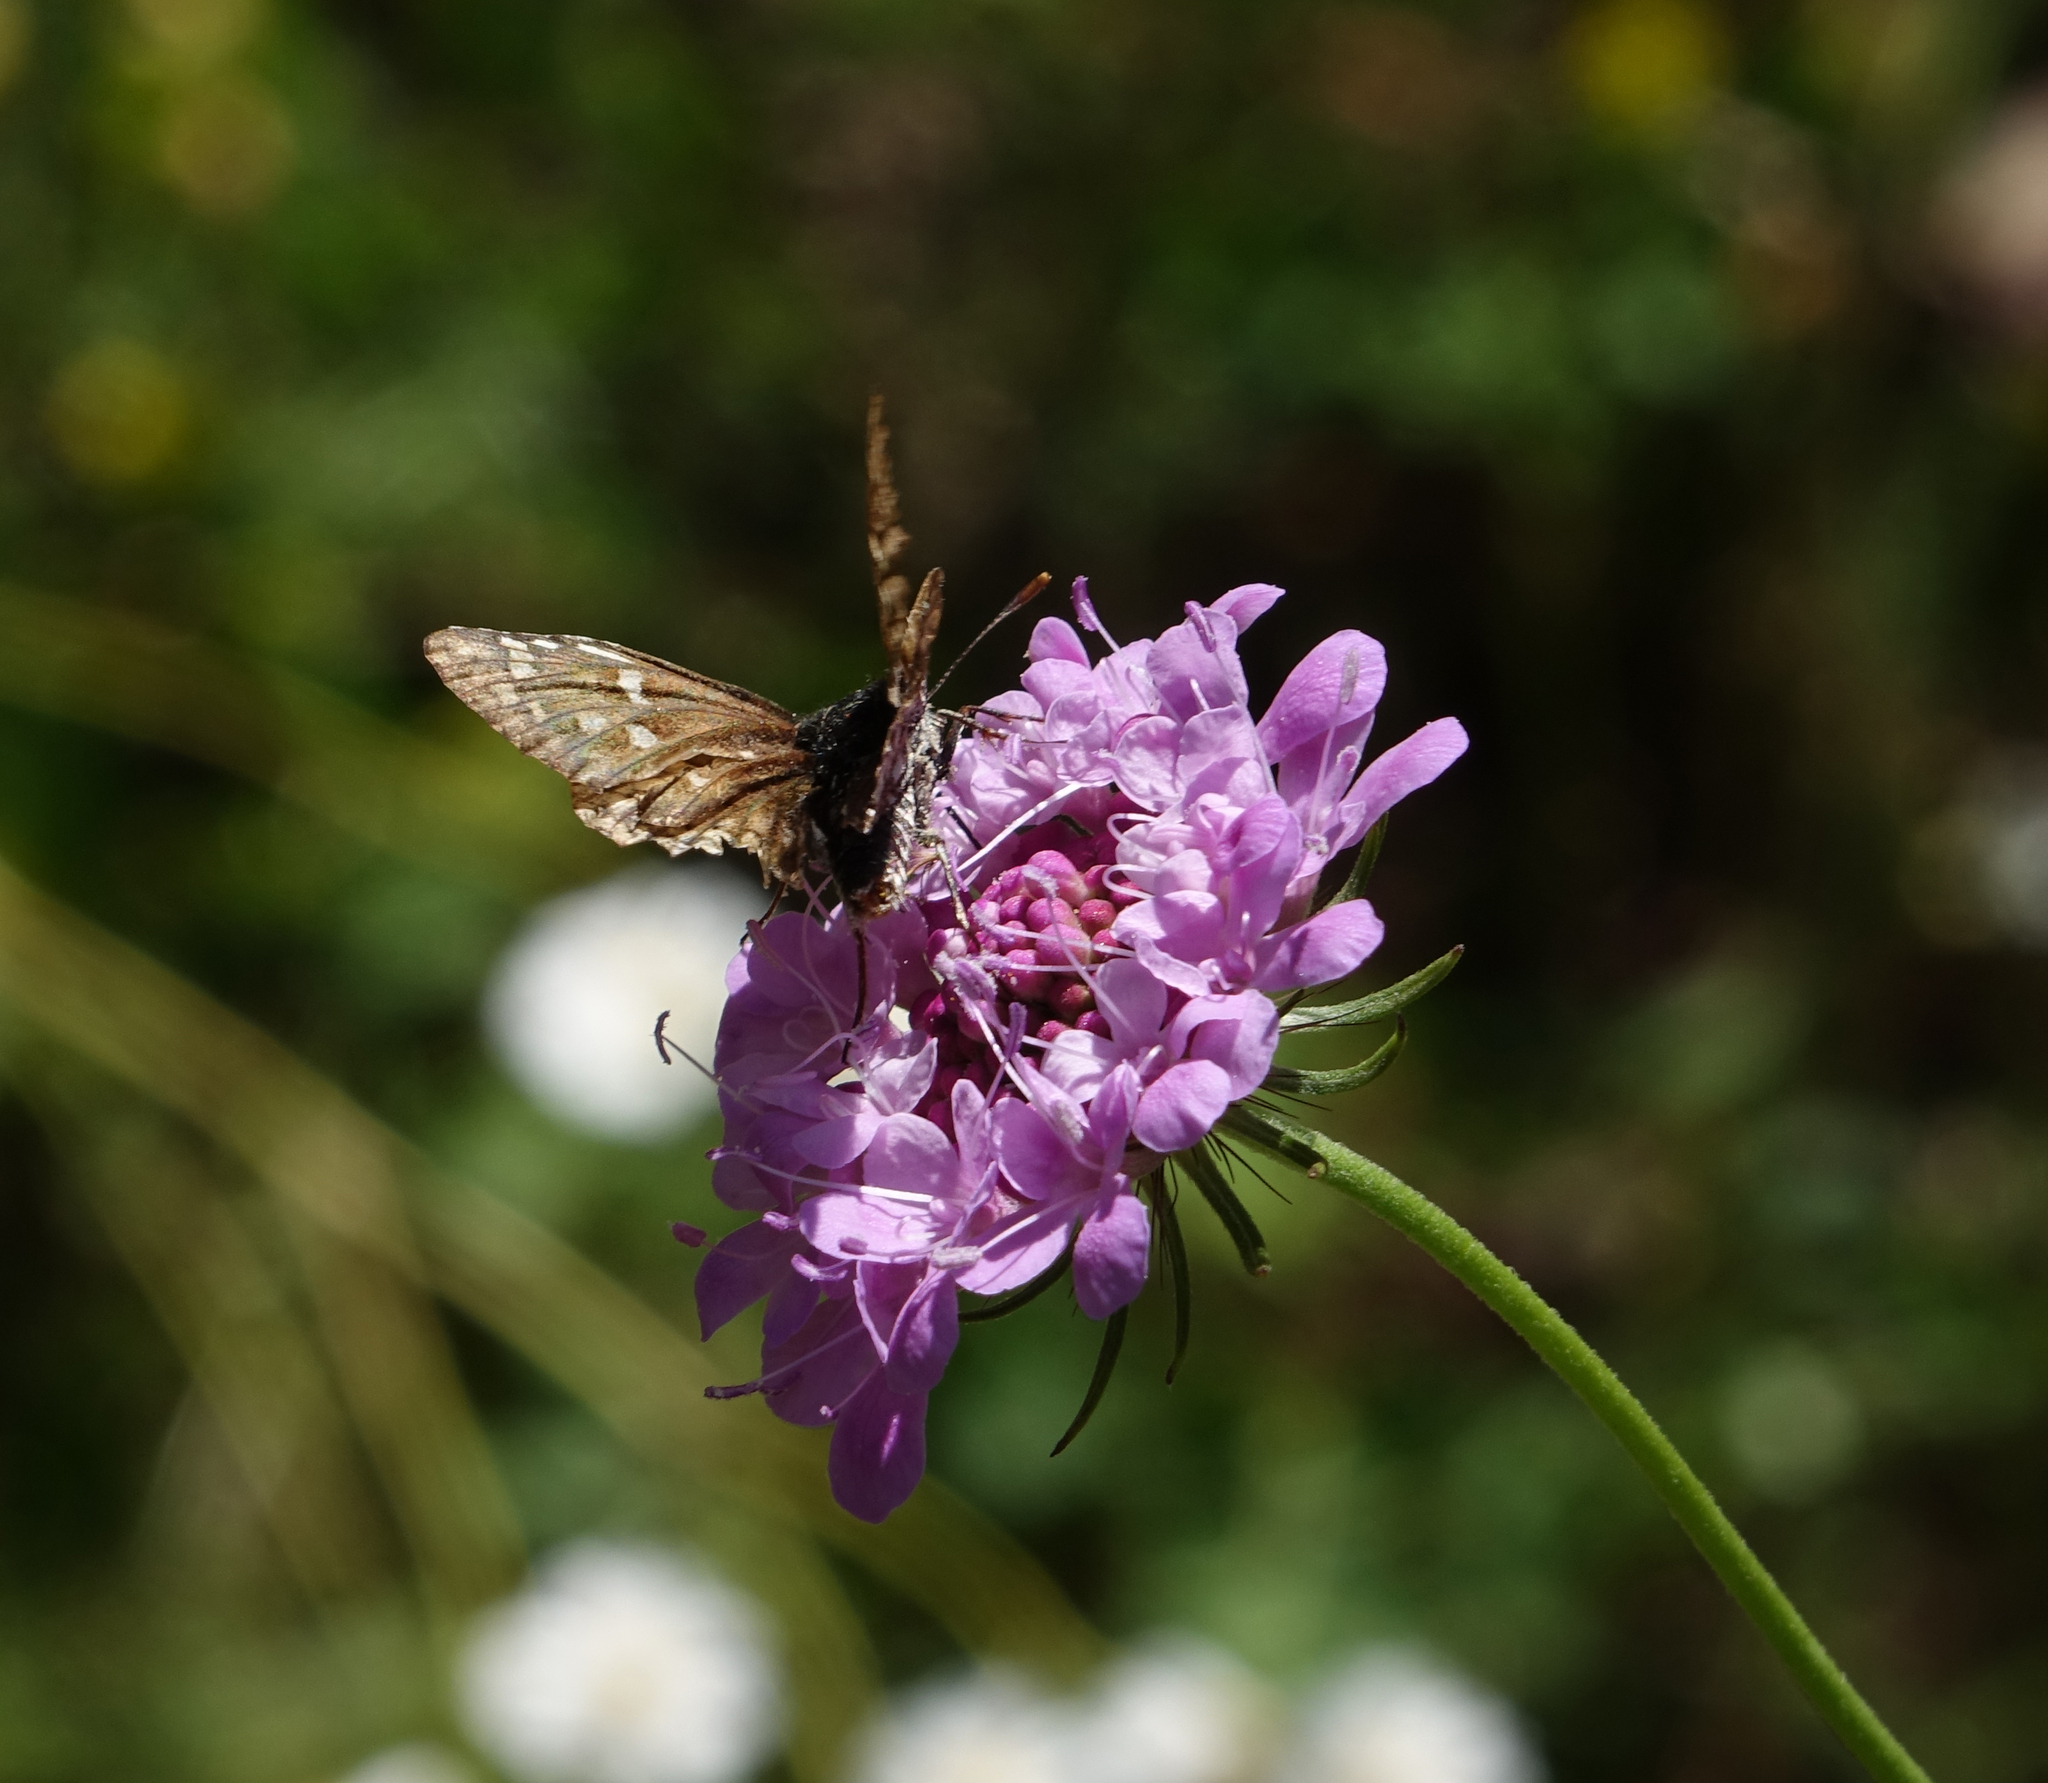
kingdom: Animalia
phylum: Arthropoda
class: Insecta
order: Lepidoptera
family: Hesperiidae
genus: Pyrgus
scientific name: Pyrgus sidae
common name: Yellow-banded skipper
